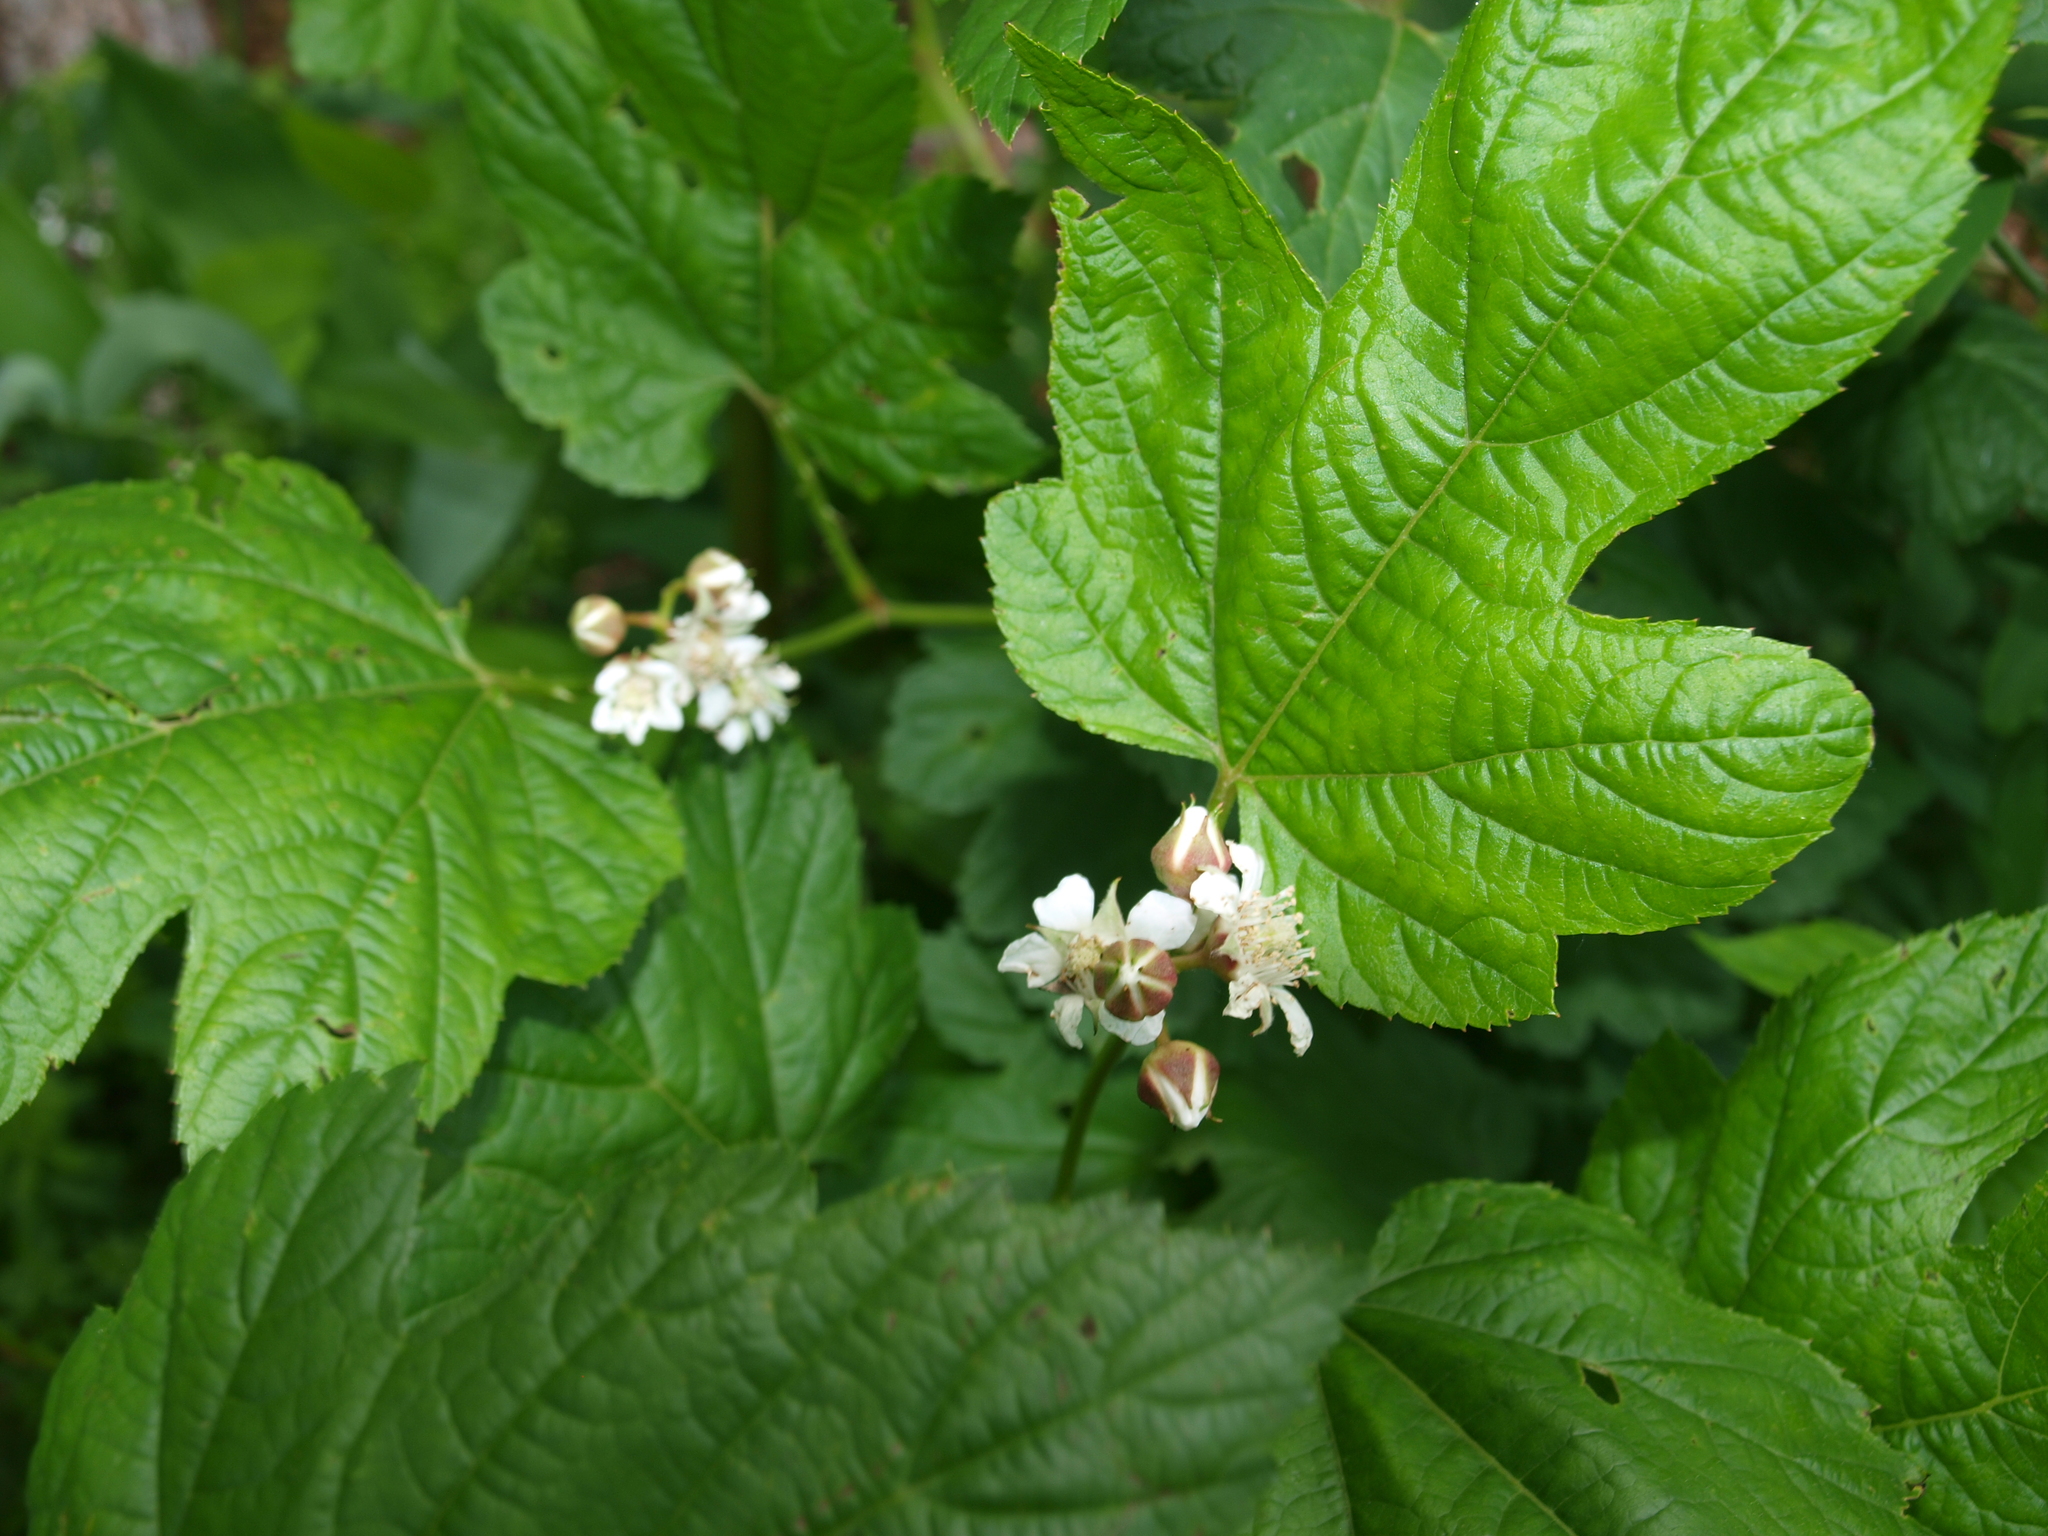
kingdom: Plantae
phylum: Tracheophyta
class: Magnoliopsida
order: Rosales
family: Rosaceae
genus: Rubus
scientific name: Rubus crataegifolius
